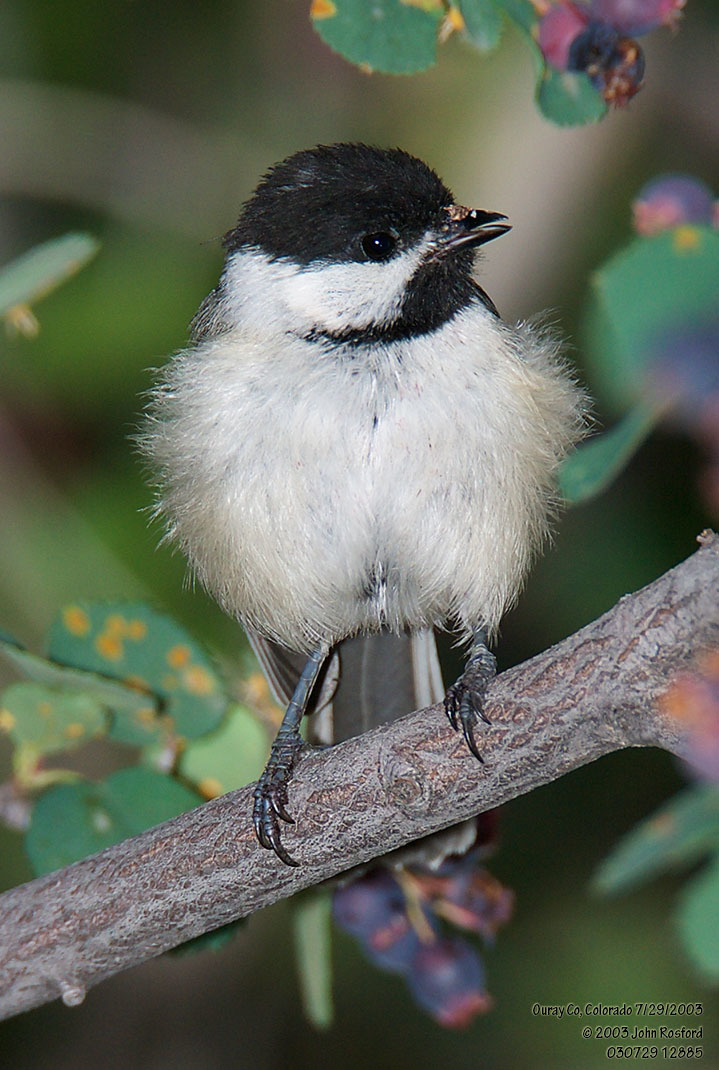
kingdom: Animalia
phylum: Chordata
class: Aves
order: Passeriformes
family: Paridae
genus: Poecile
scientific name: Poecile atricapillus
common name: Black-capped chickadee
